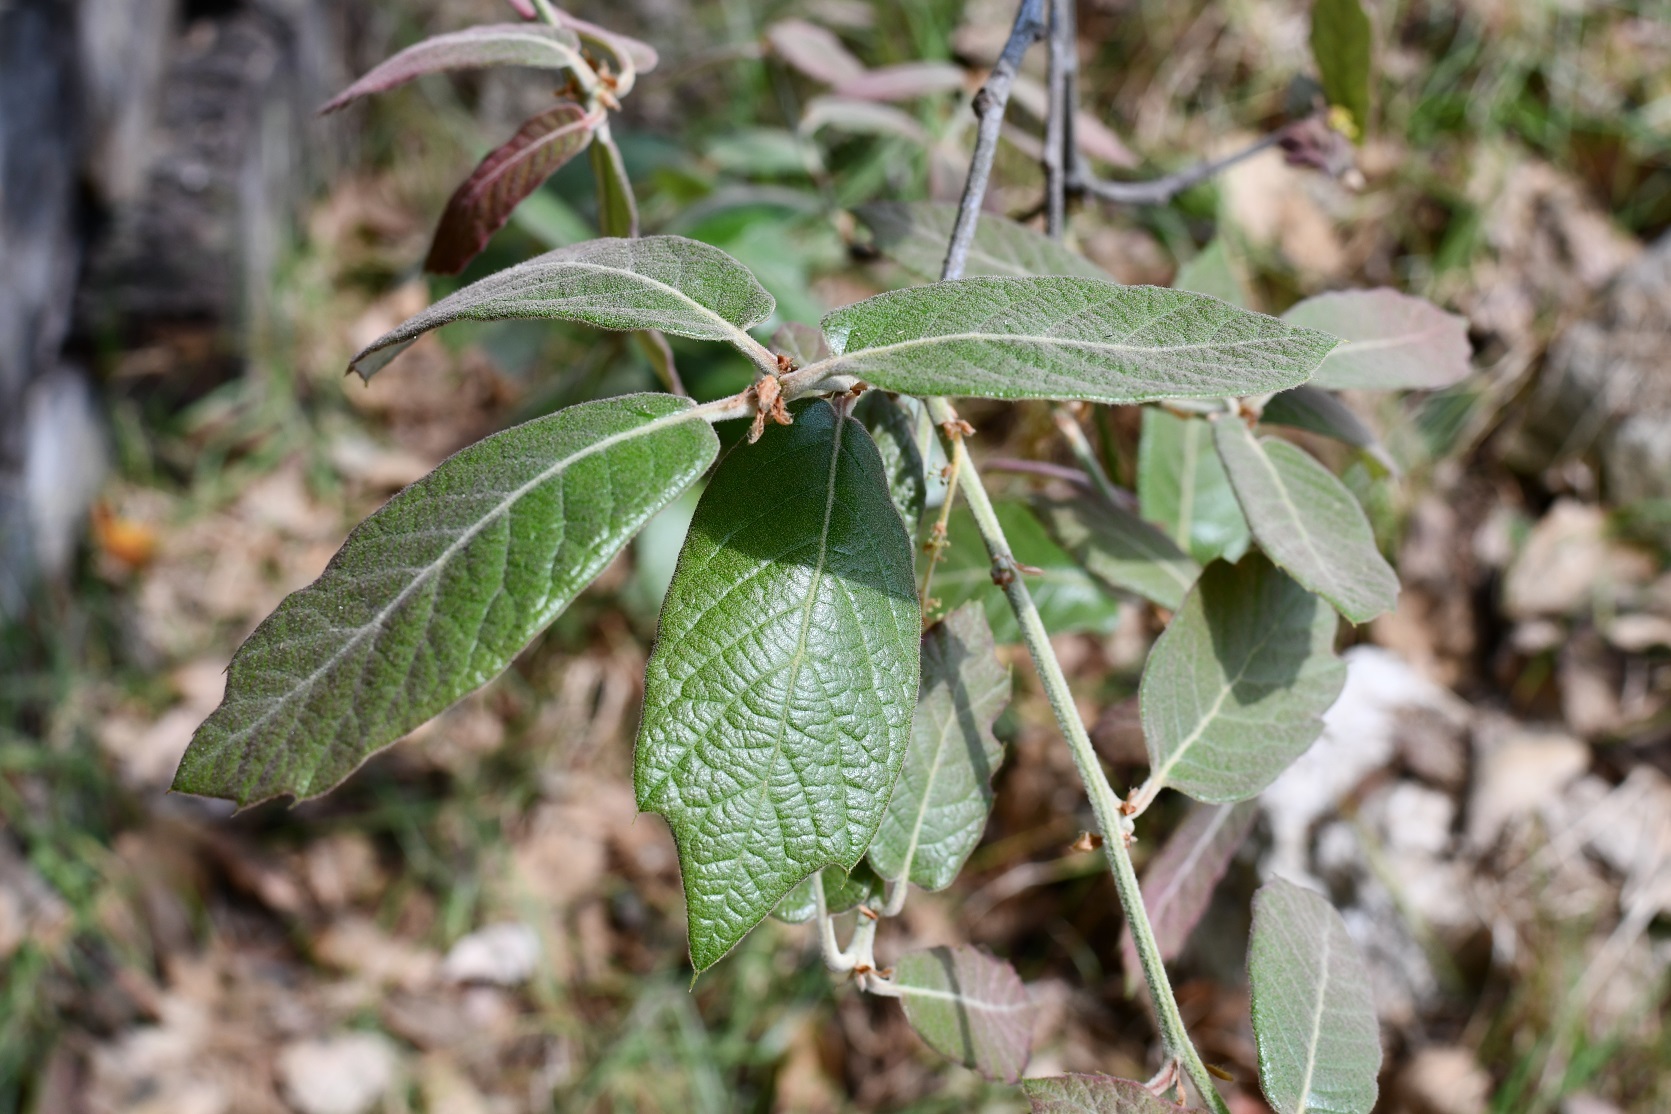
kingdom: Plantae
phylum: Tracheophyta
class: Magnoliopsida
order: Fagales
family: Fagaceae
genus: Quercus
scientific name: Quercus crassifolia
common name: Leather leaf mexican oak
